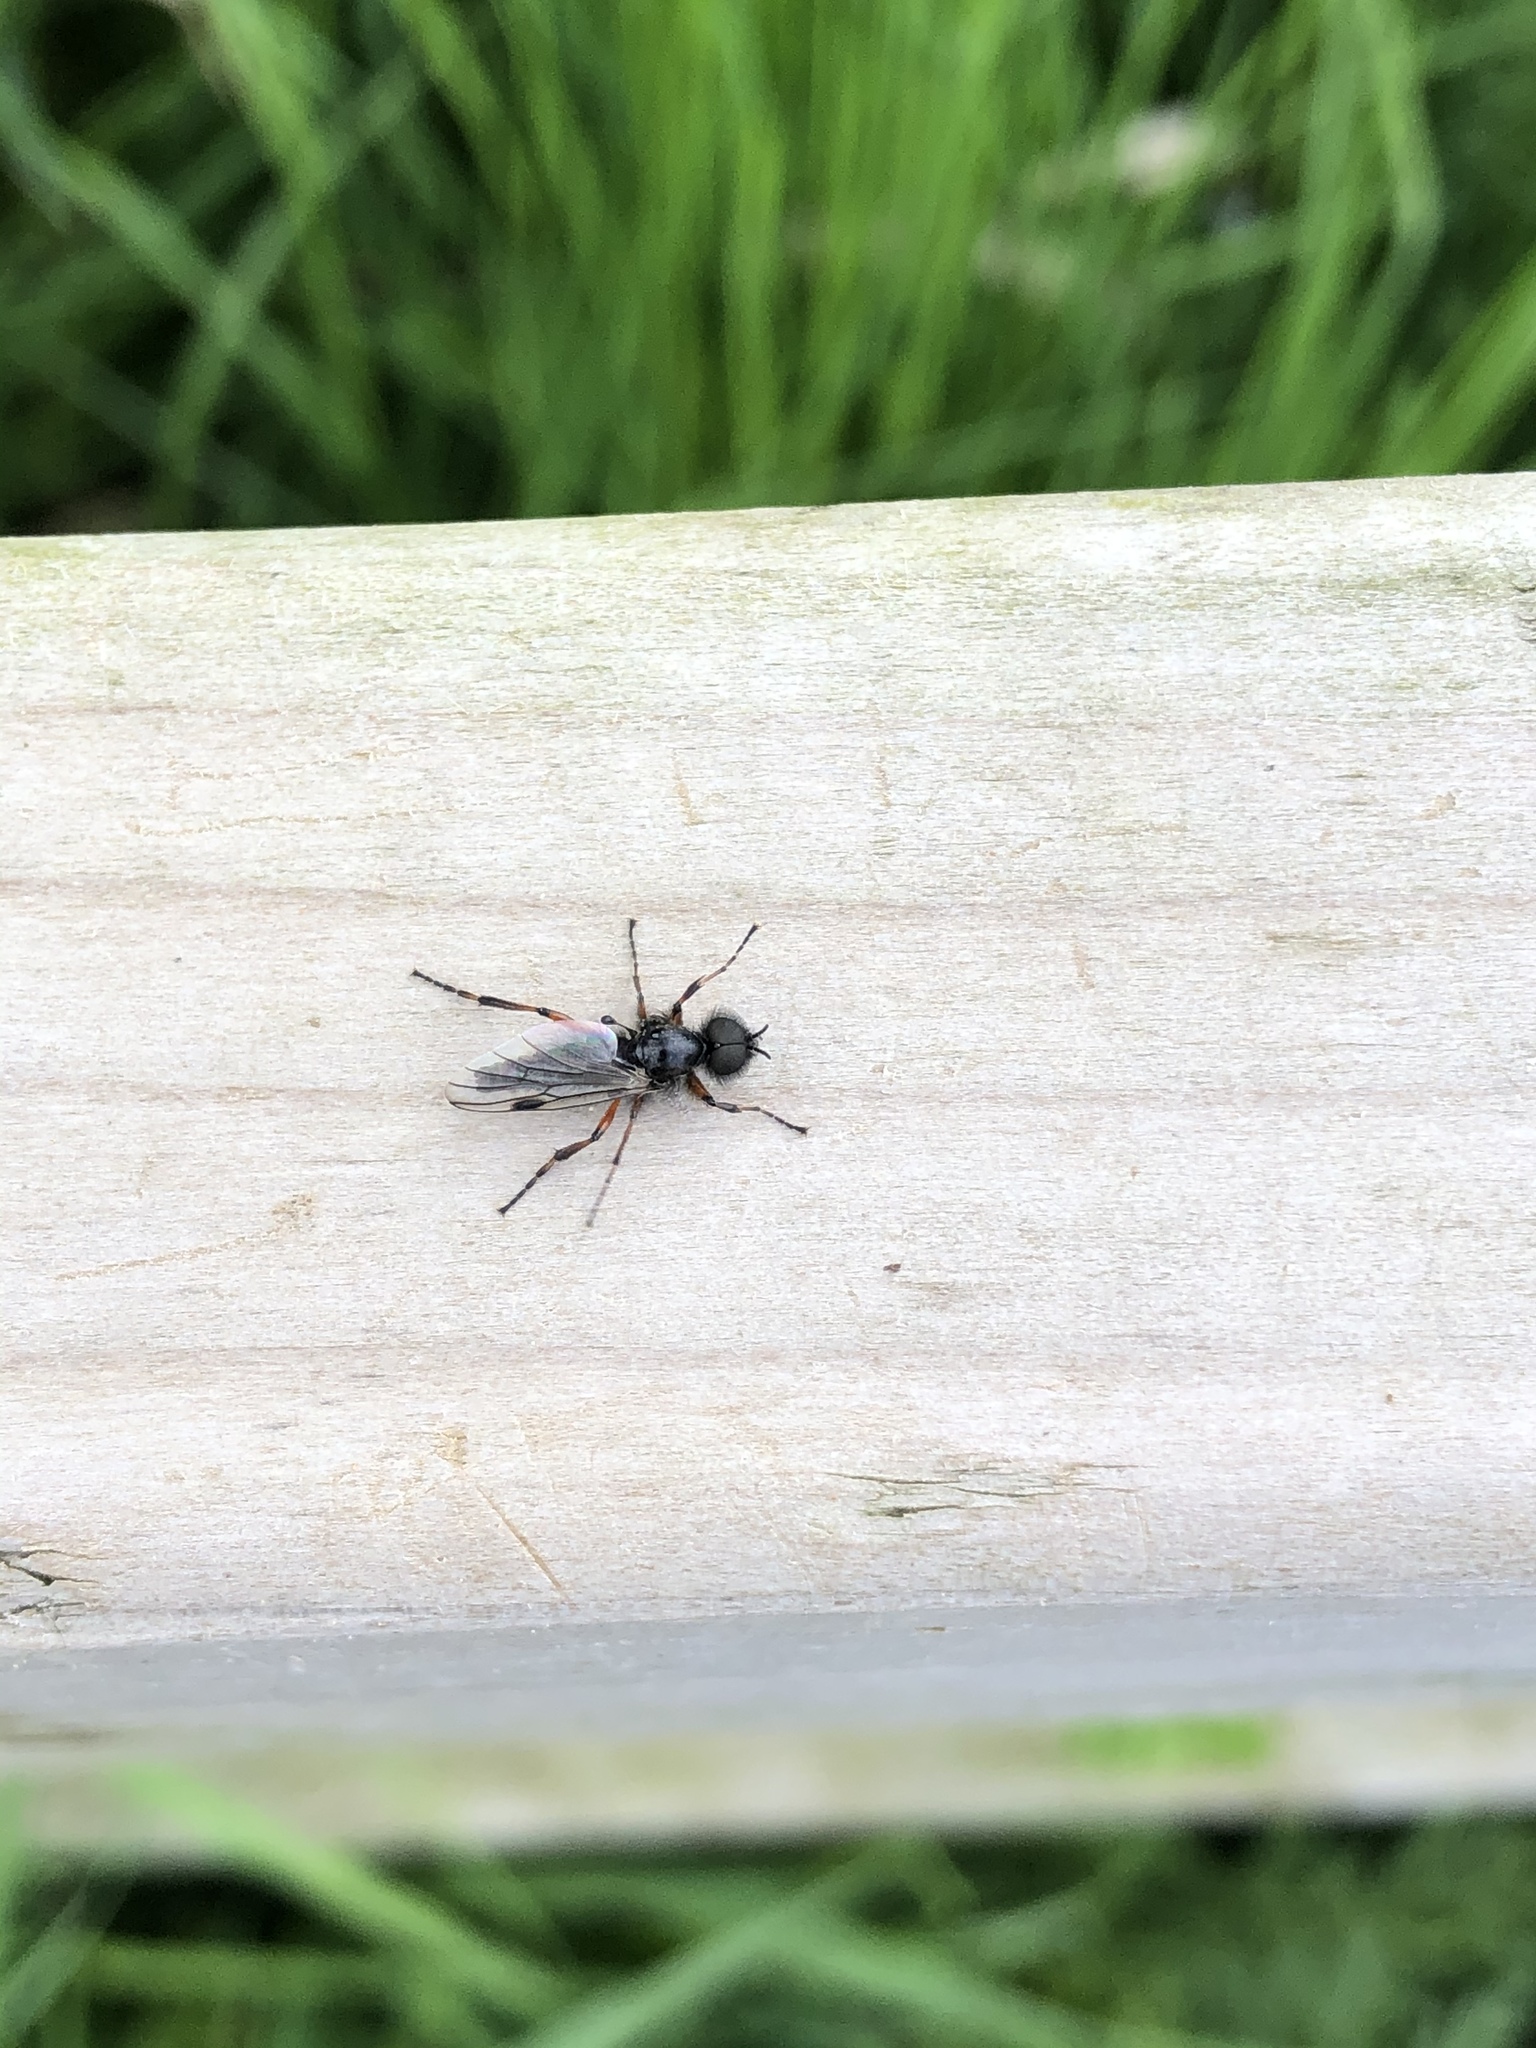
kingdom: Animalia
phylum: Arthropoda
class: Insecta
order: Diptera
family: Bibionidae
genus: Bibio
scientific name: Bibio vestitus
